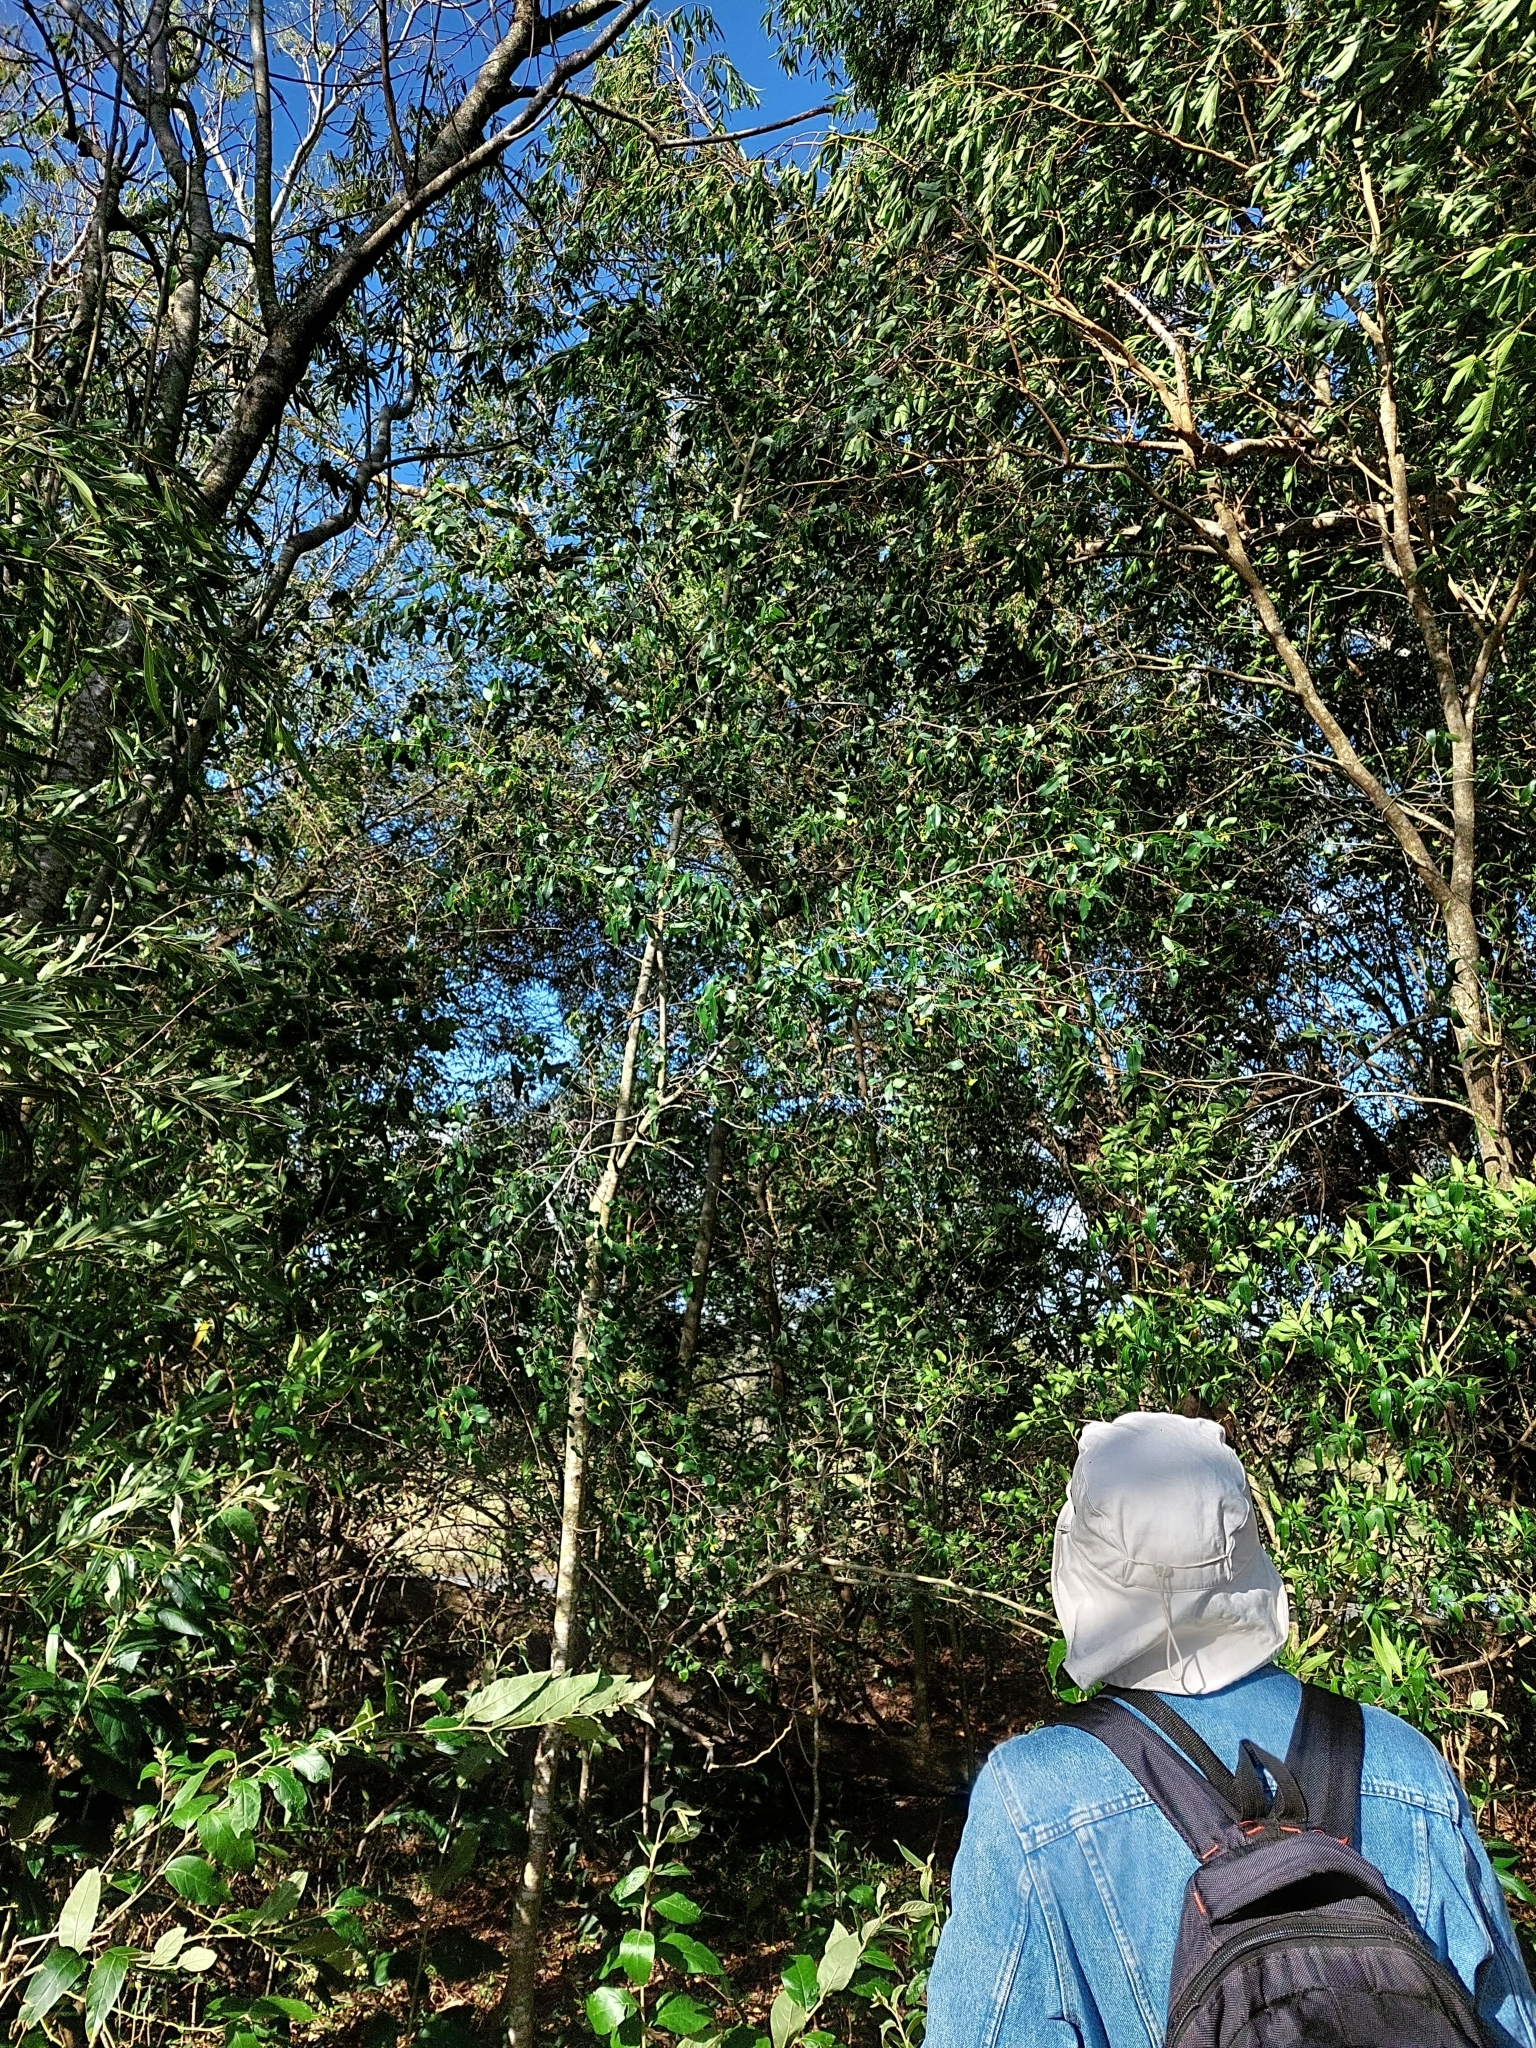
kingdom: Plantae
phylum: Tracheophyta
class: Magnoliopsida
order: Magnoliales
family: Annonaceae
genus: Annona
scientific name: Annona emarginata
